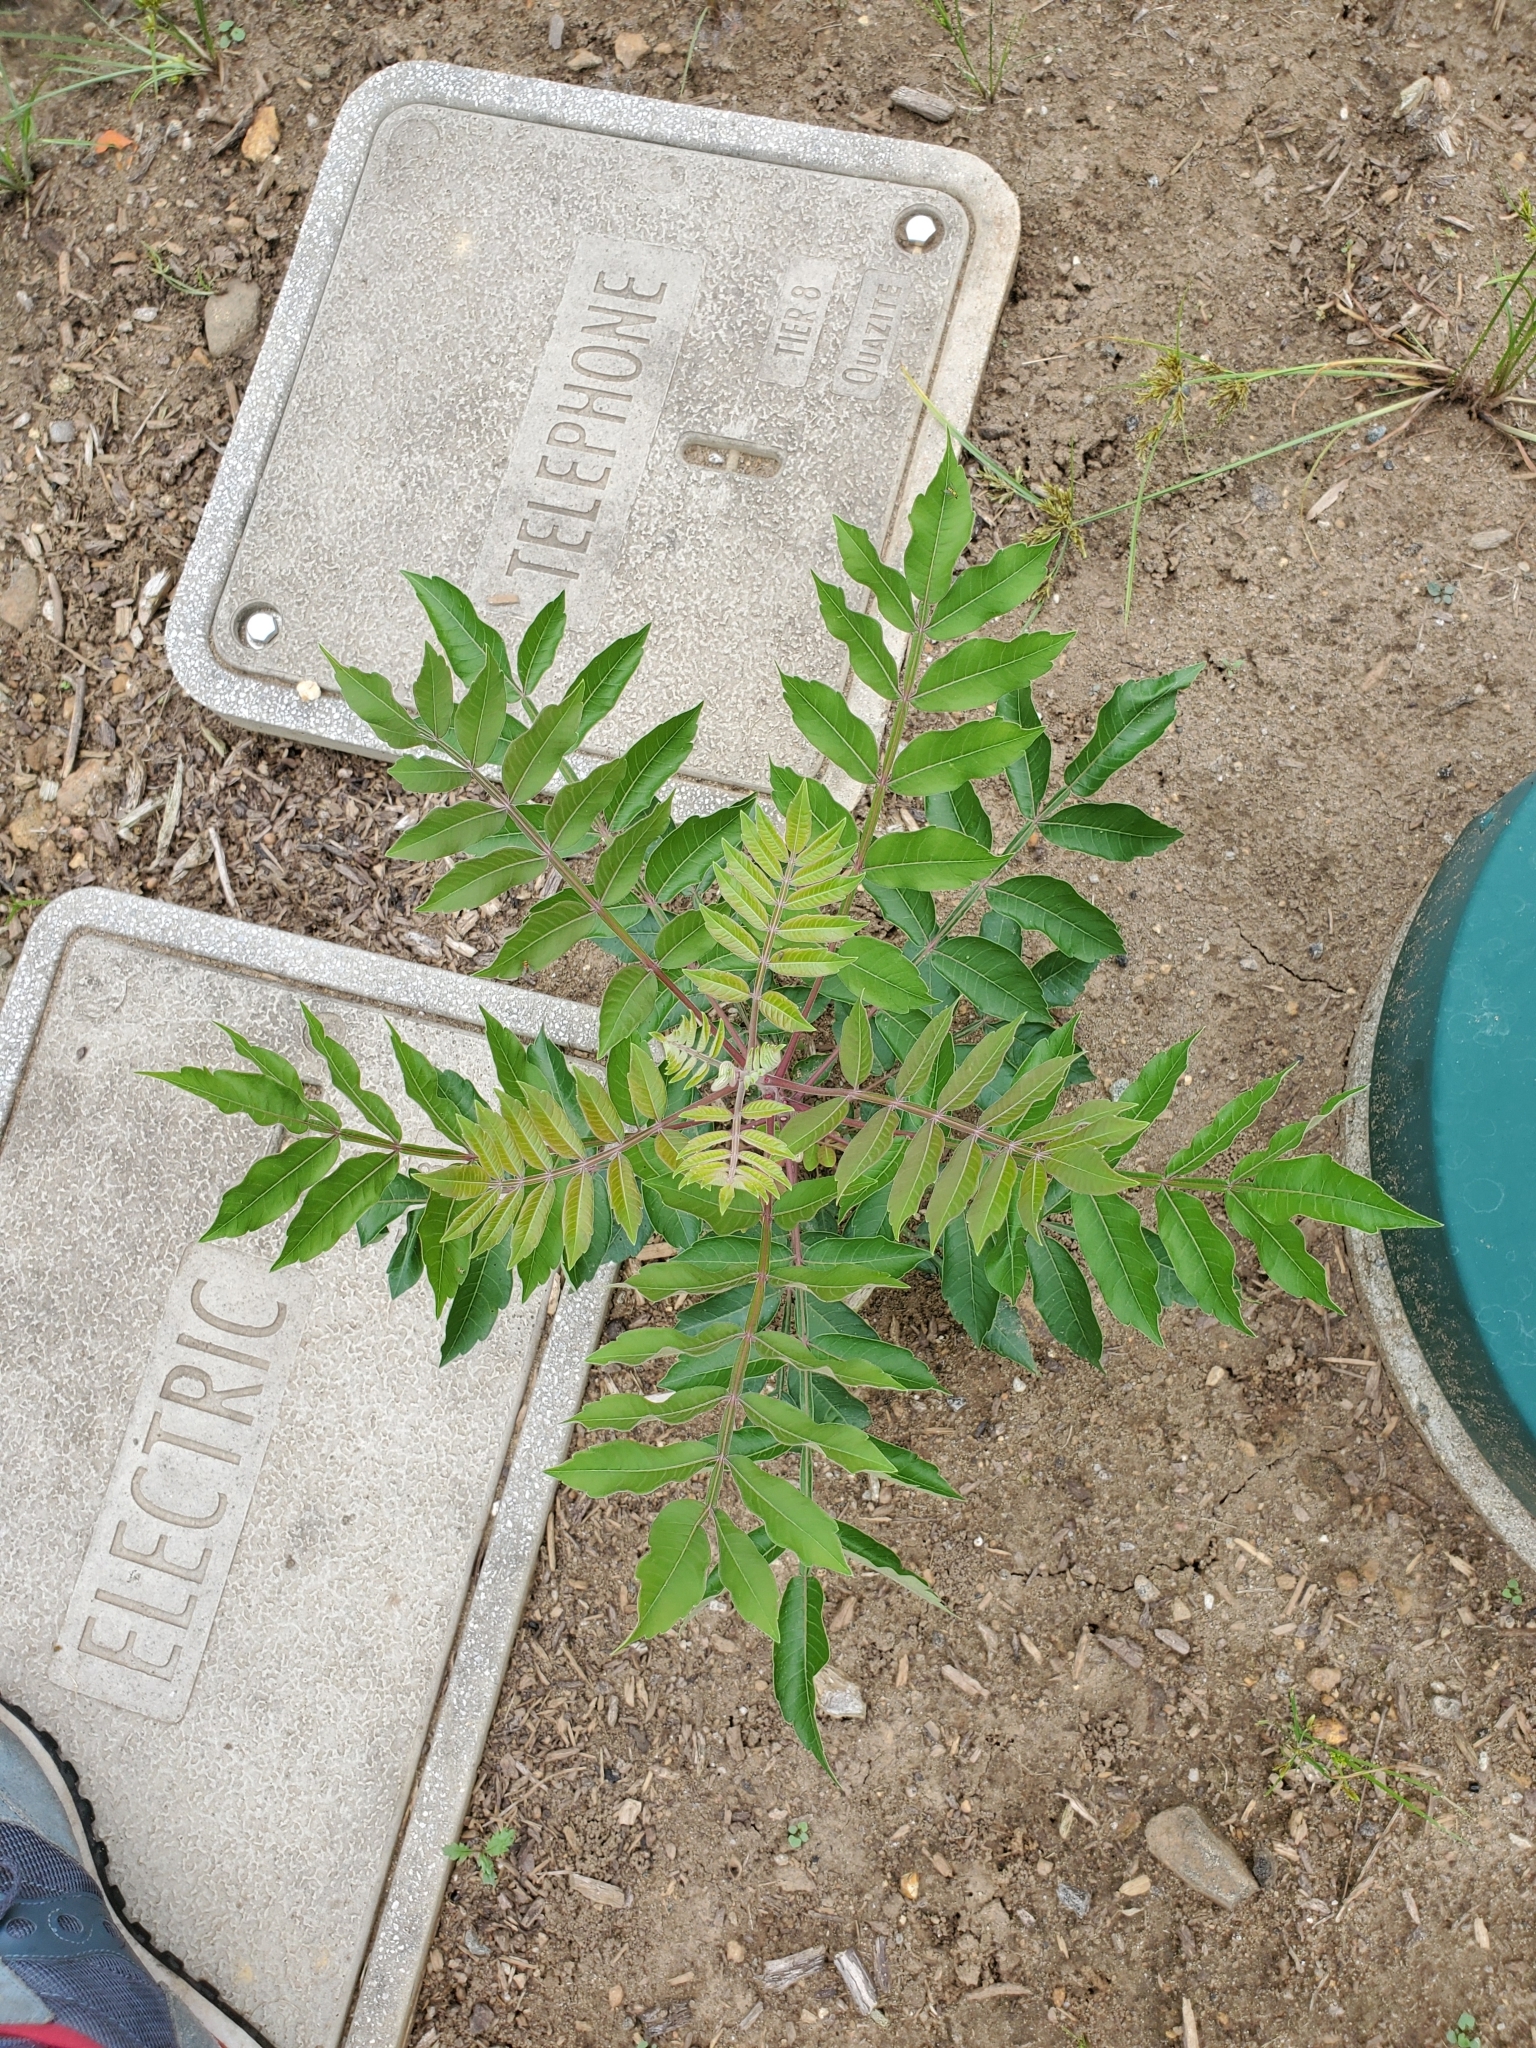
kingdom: Plantae
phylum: Tracheophyta
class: Magnoliopsida
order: Sapindales
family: Anacardiaceae
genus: Rhus
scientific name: Rhus copallina
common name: Shining sumac
